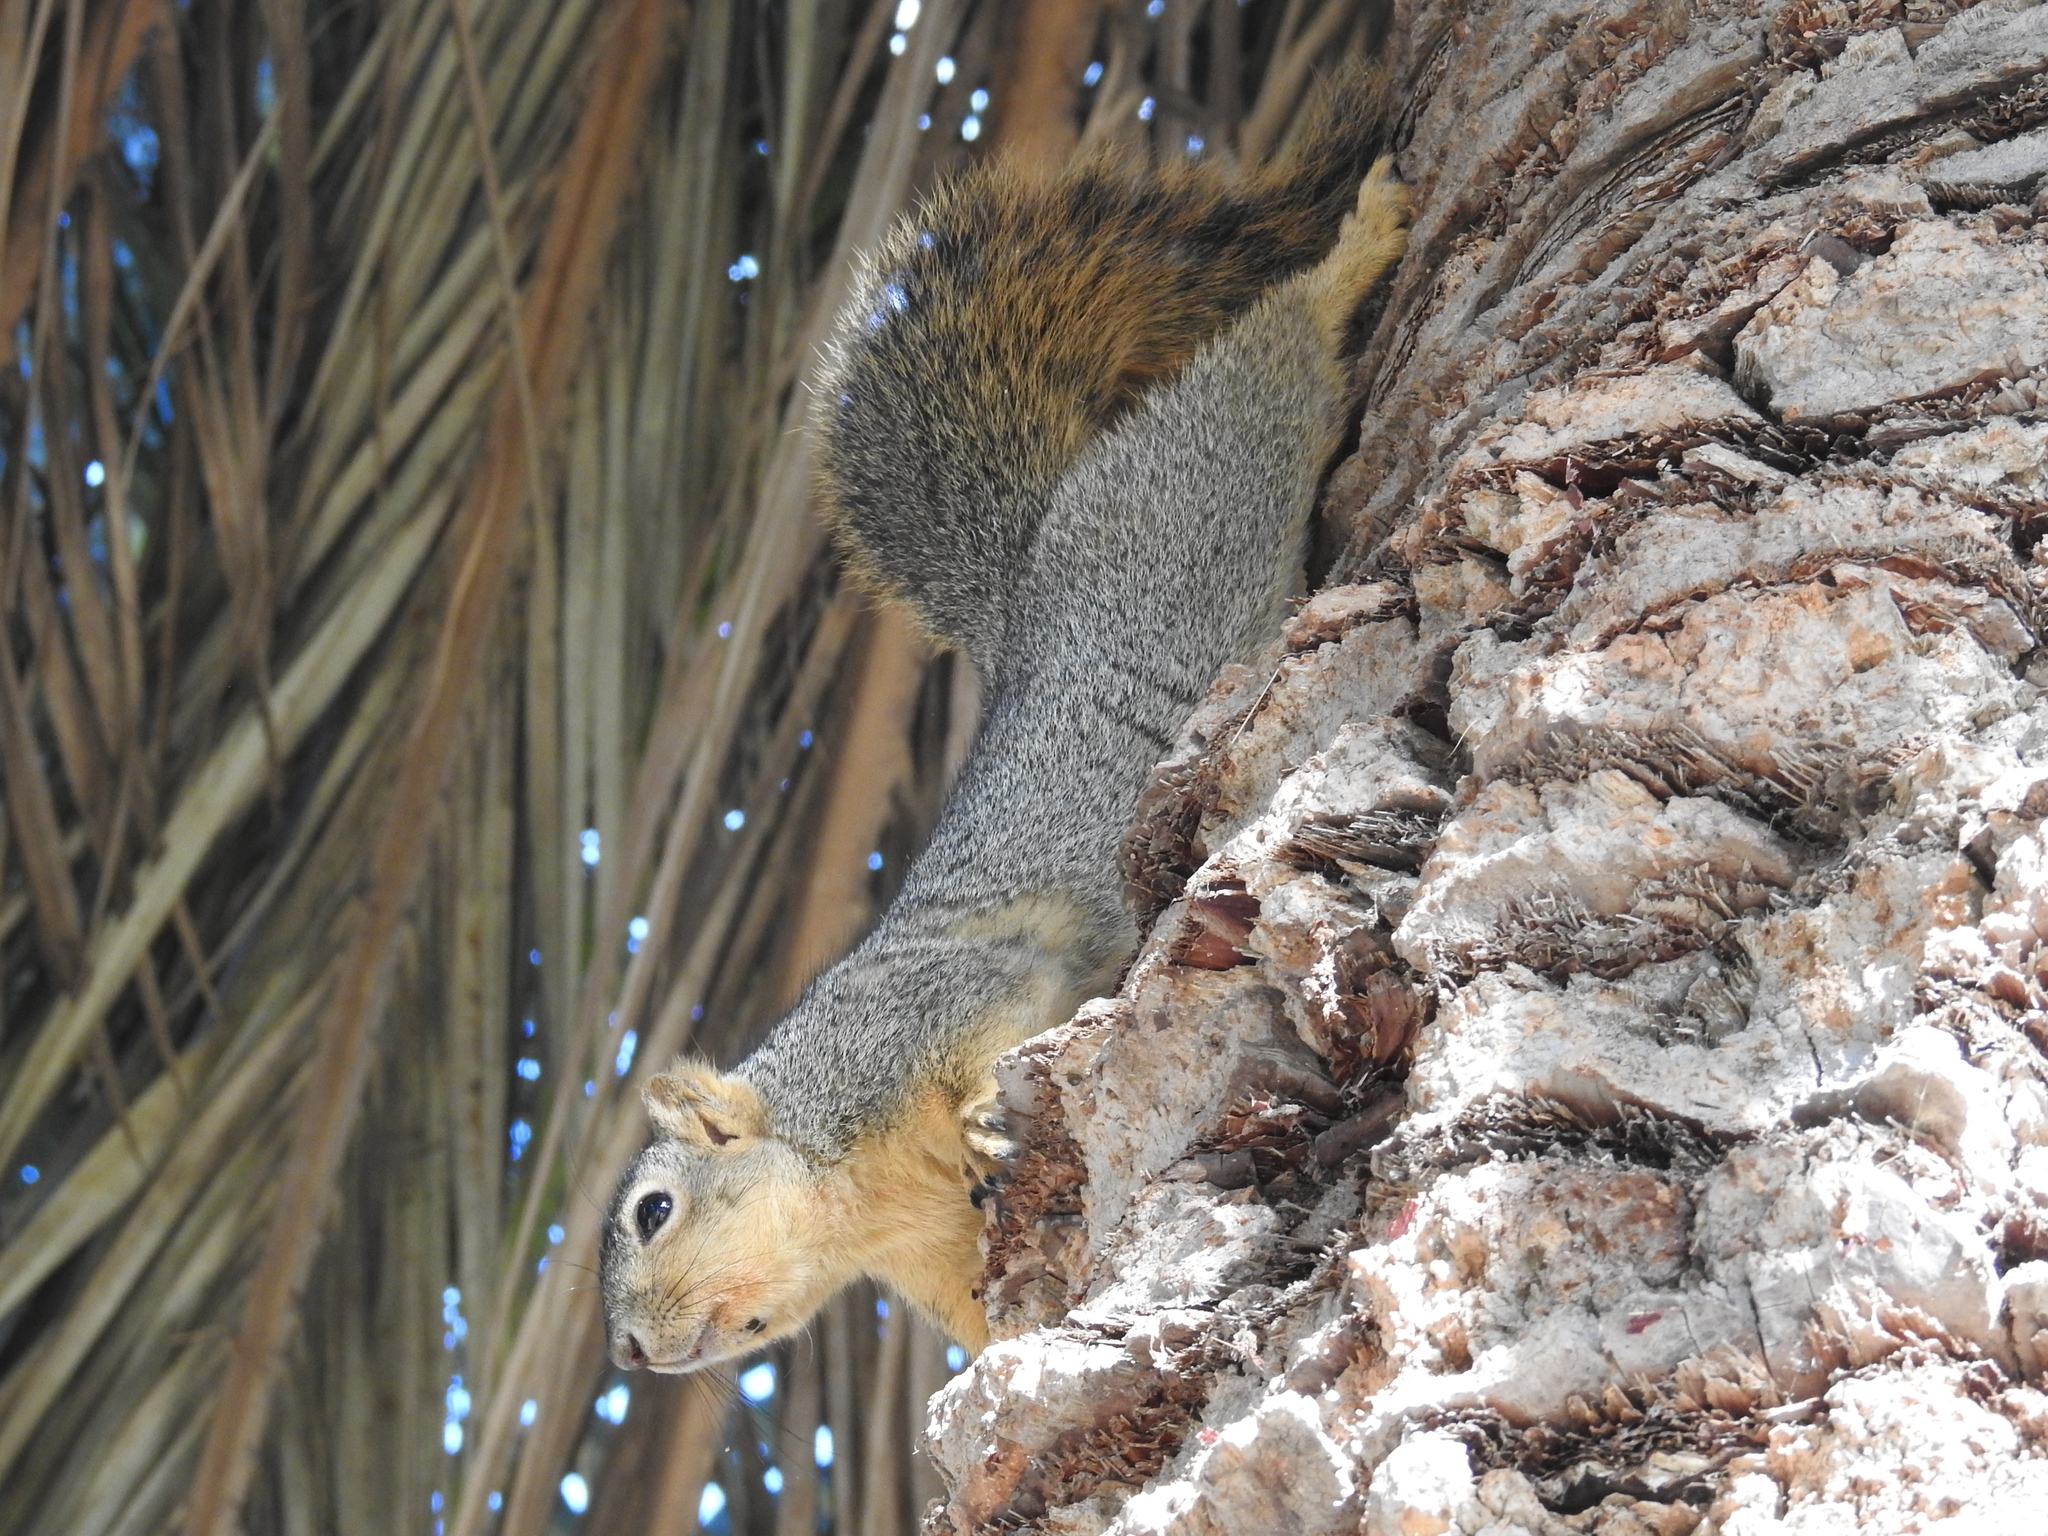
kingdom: Animalia
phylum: Chordata
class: Mammalia
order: Rodentia
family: Sciuridae
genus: Sciurus
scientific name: Sciurus niger
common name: Fox squirrel
